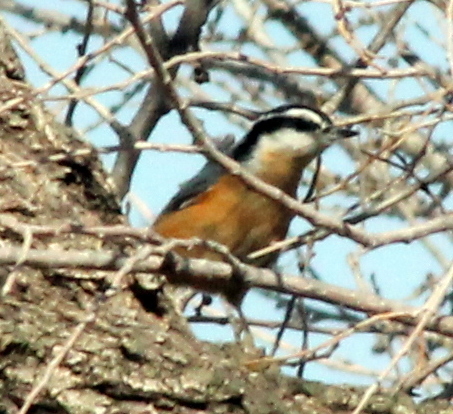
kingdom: Animalia
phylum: Chordata
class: Aves
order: Passeriformes
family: Sittidae
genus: Sitta
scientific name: Sitta canadensis
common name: Red-breasted nuthatch
